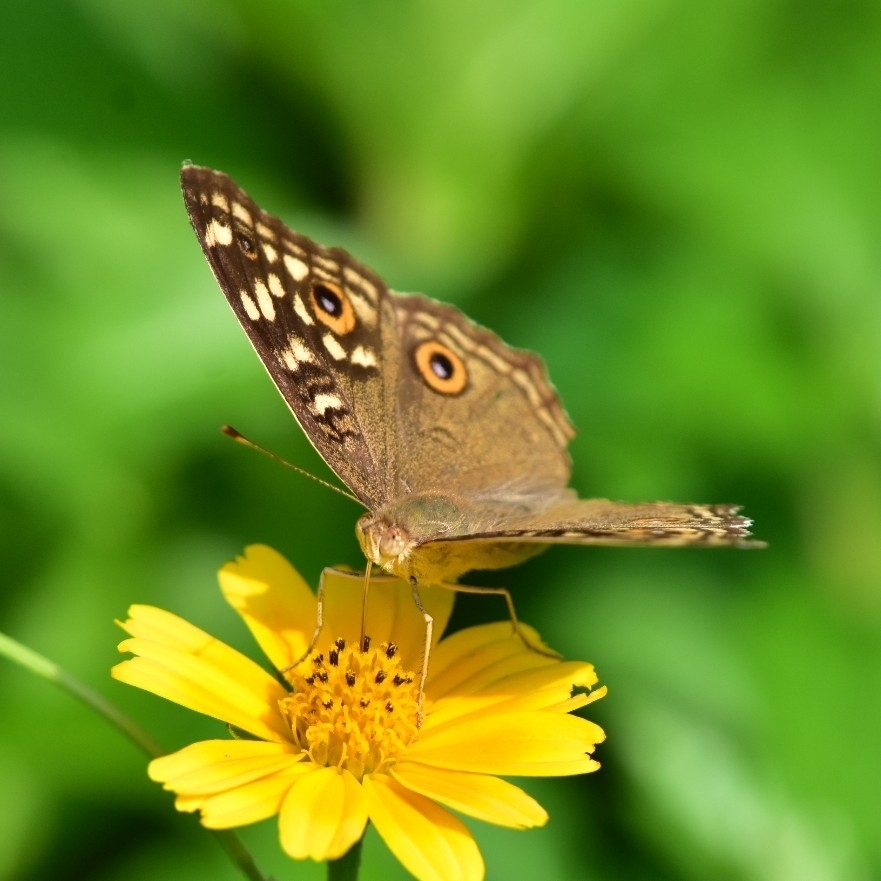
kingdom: Animalia
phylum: Arthropoda
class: Insecta
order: Lepidoptera
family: Nymphalidae
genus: Junonia
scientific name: Junonia lemonias
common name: Lemon pansy
